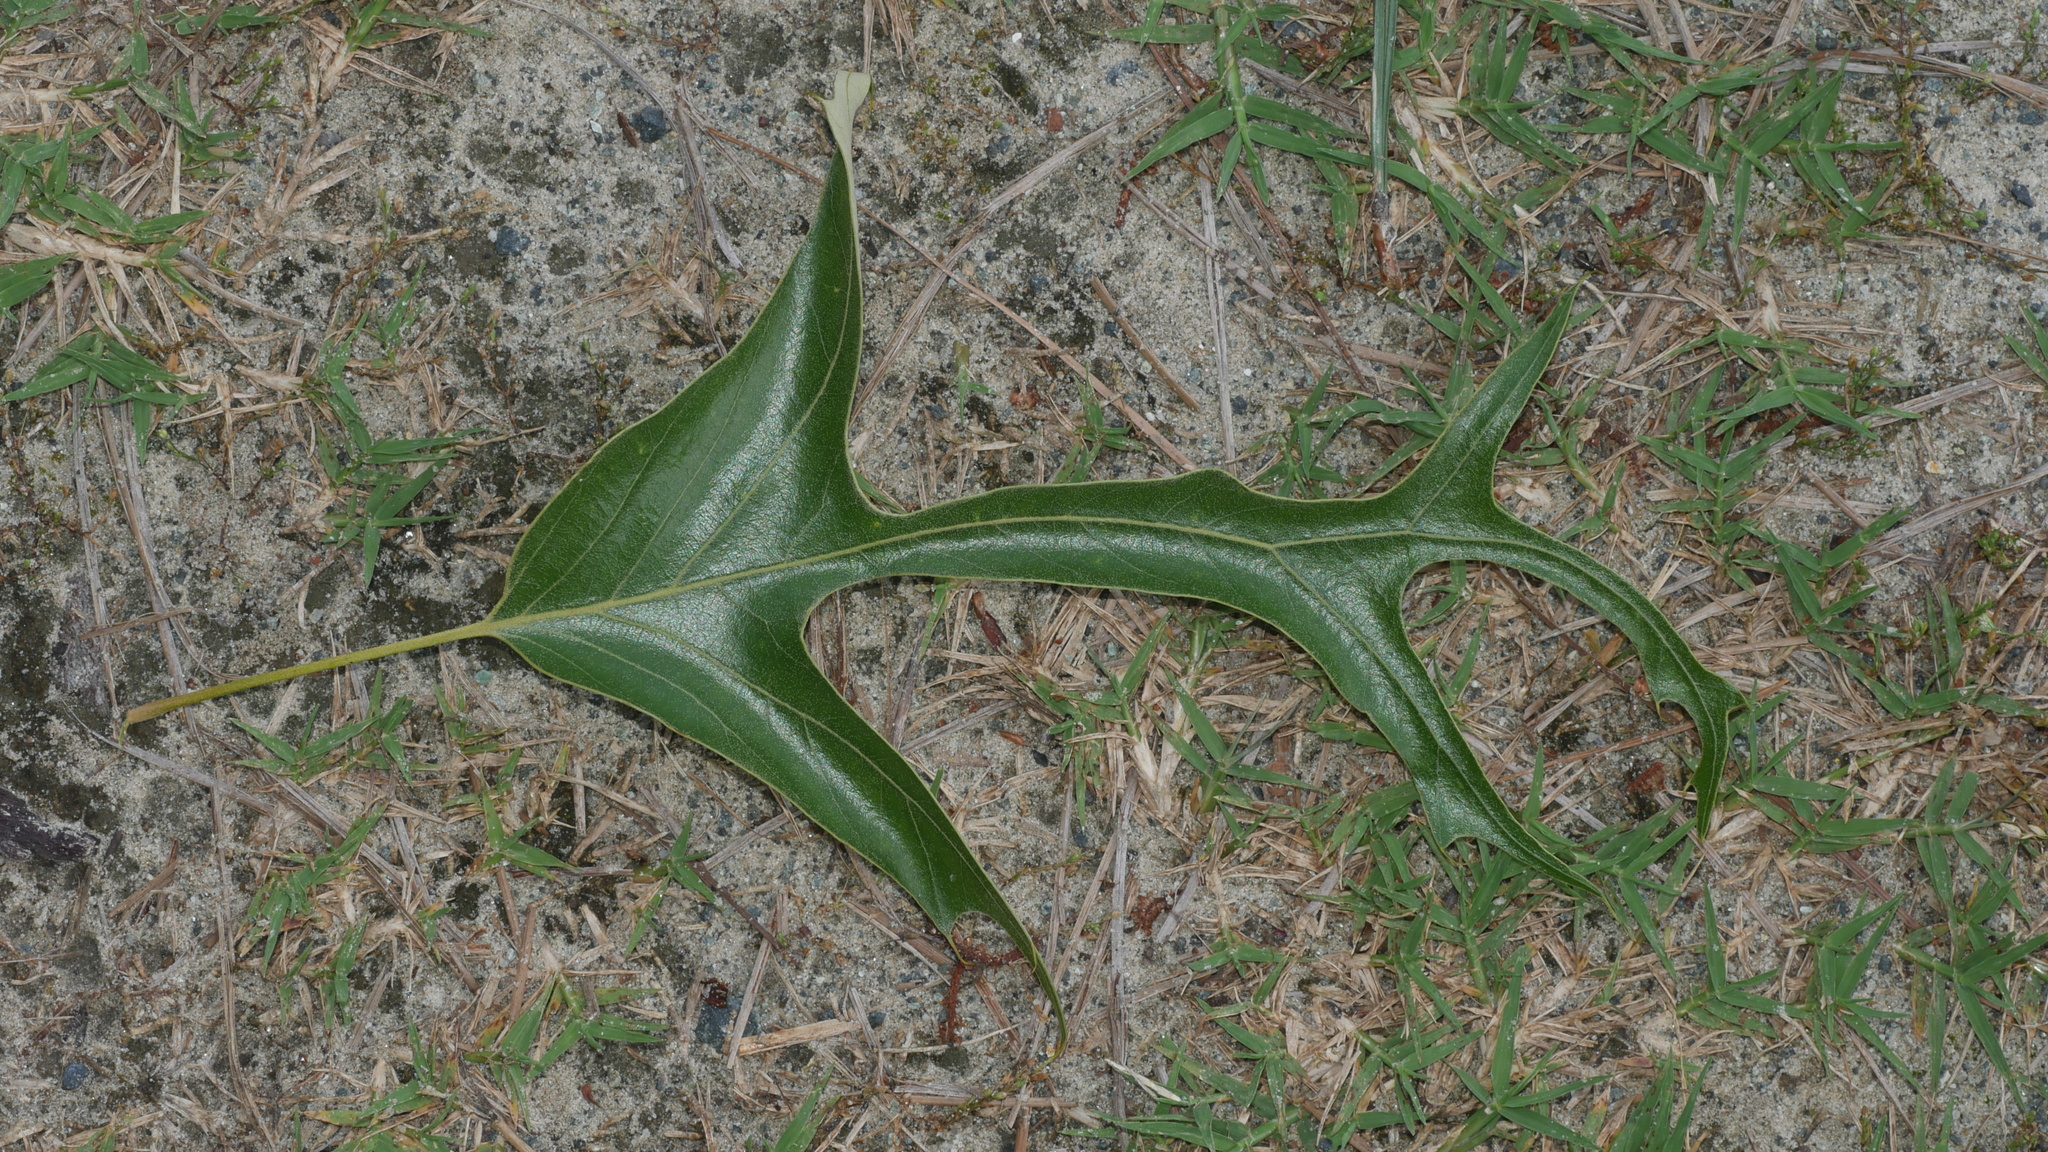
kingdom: Plantae
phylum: Tracheophyta
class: Magnoliopsida
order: Fagales
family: Fagaceae
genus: Quercus
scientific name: Quercus falcata
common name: Southern red oak
